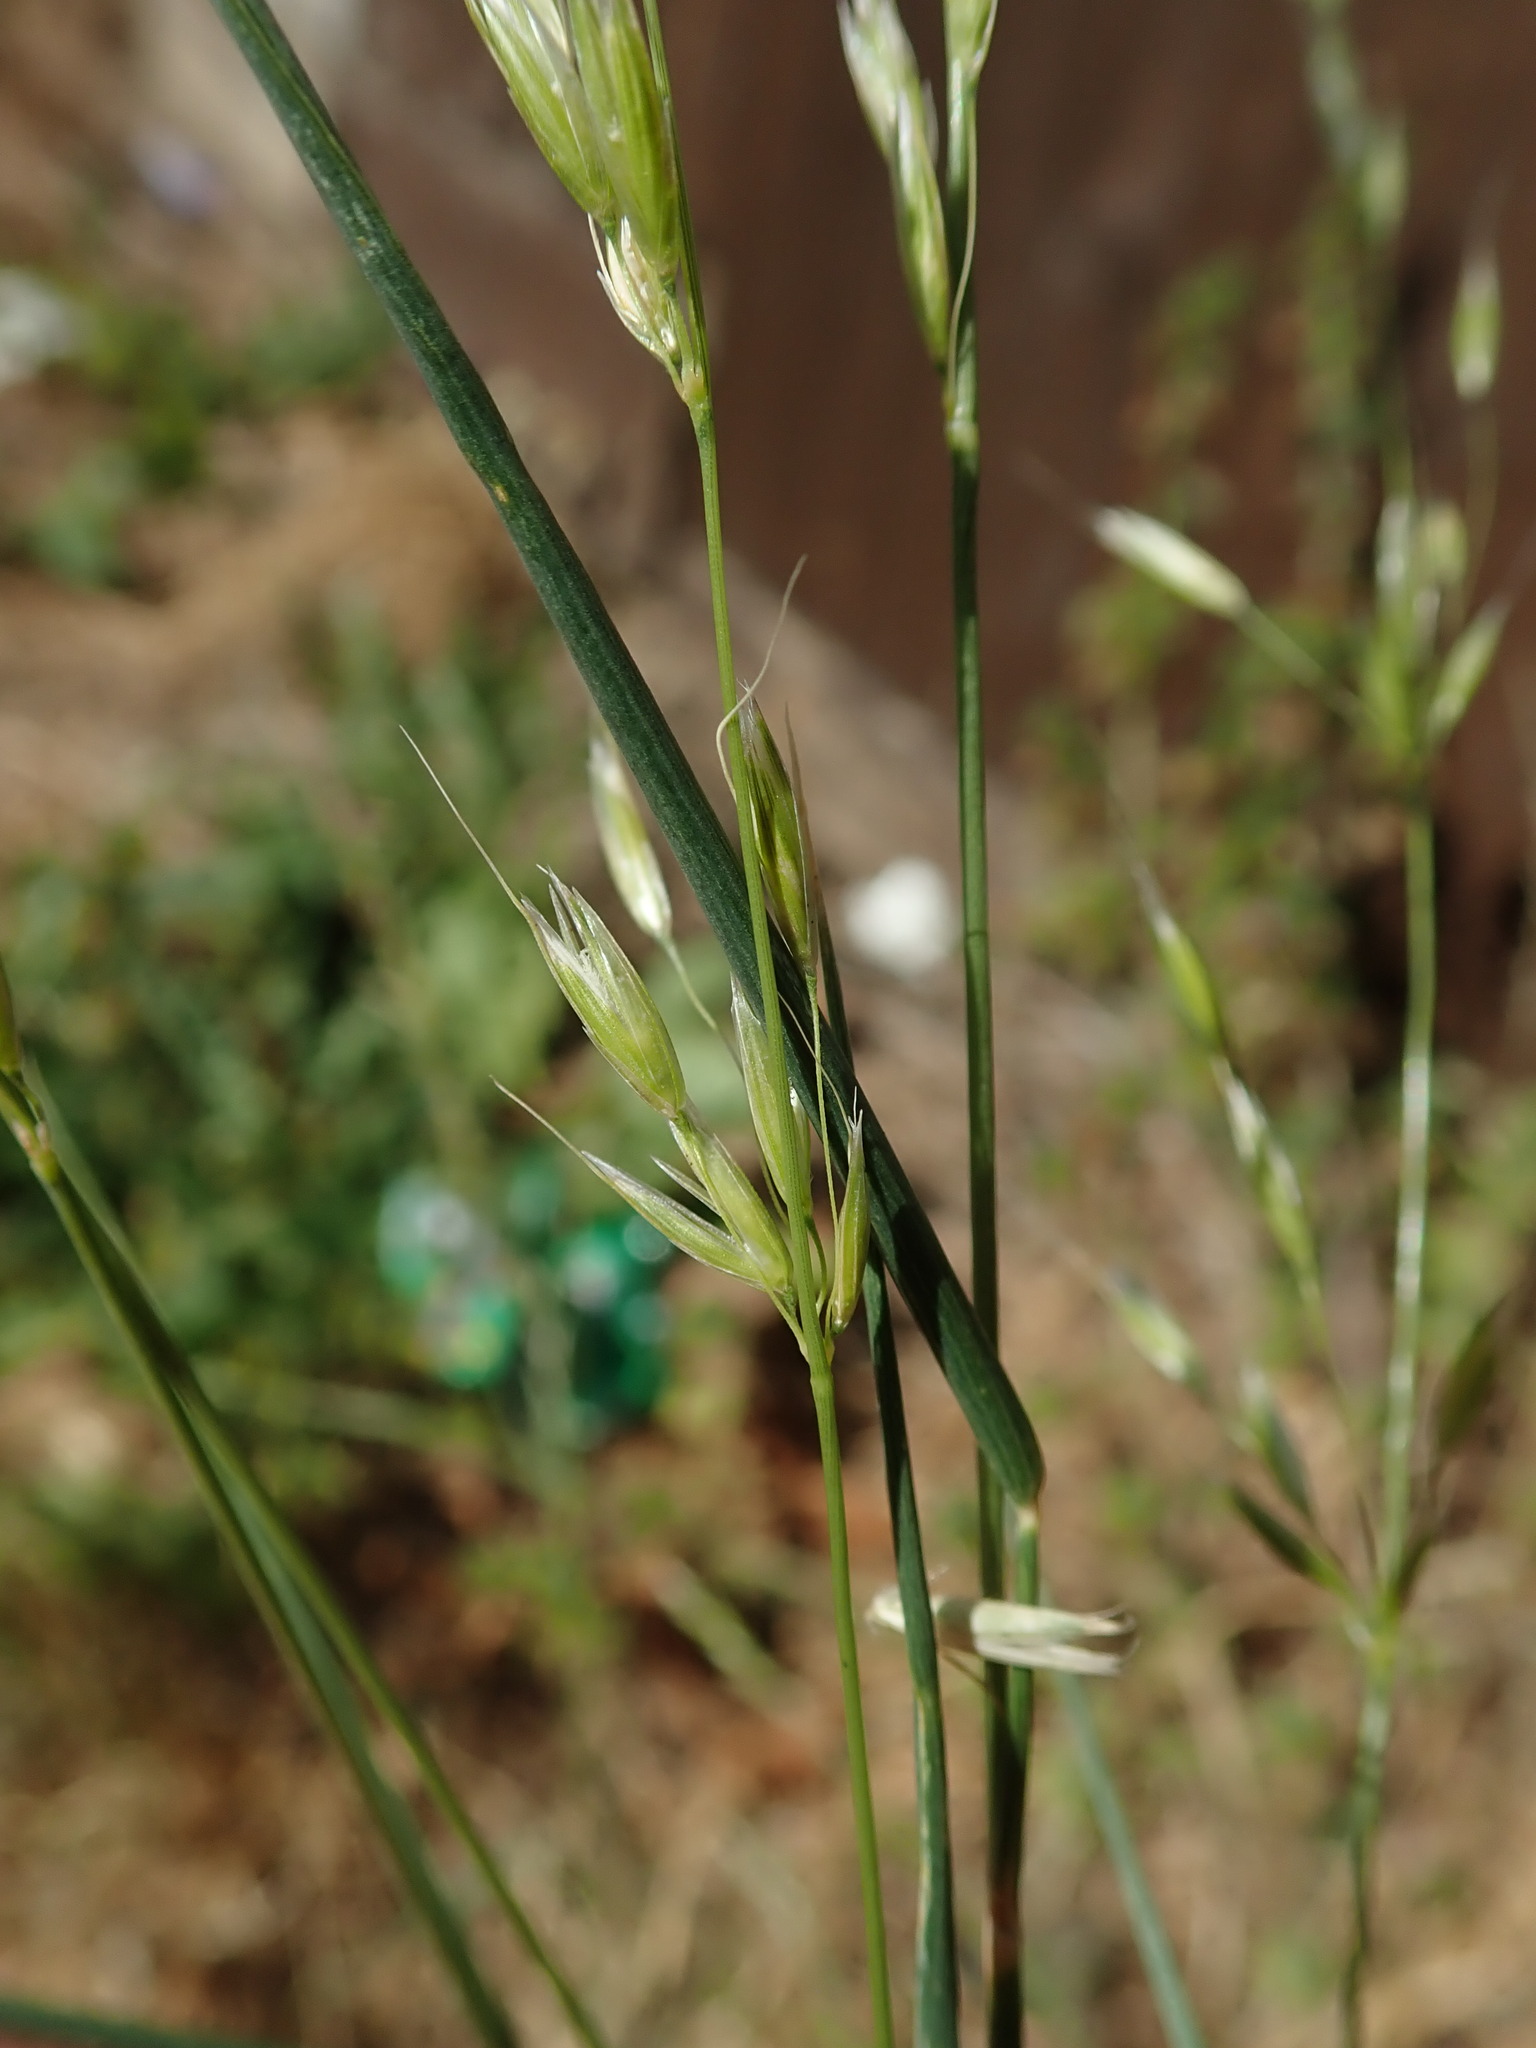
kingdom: Plantae
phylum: Tracheophyta
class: Liliopsida
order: Poales
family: Poaceae
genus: Arrhenatherum
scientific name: Arrhenatherum elatius
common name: Tall oatgrass
